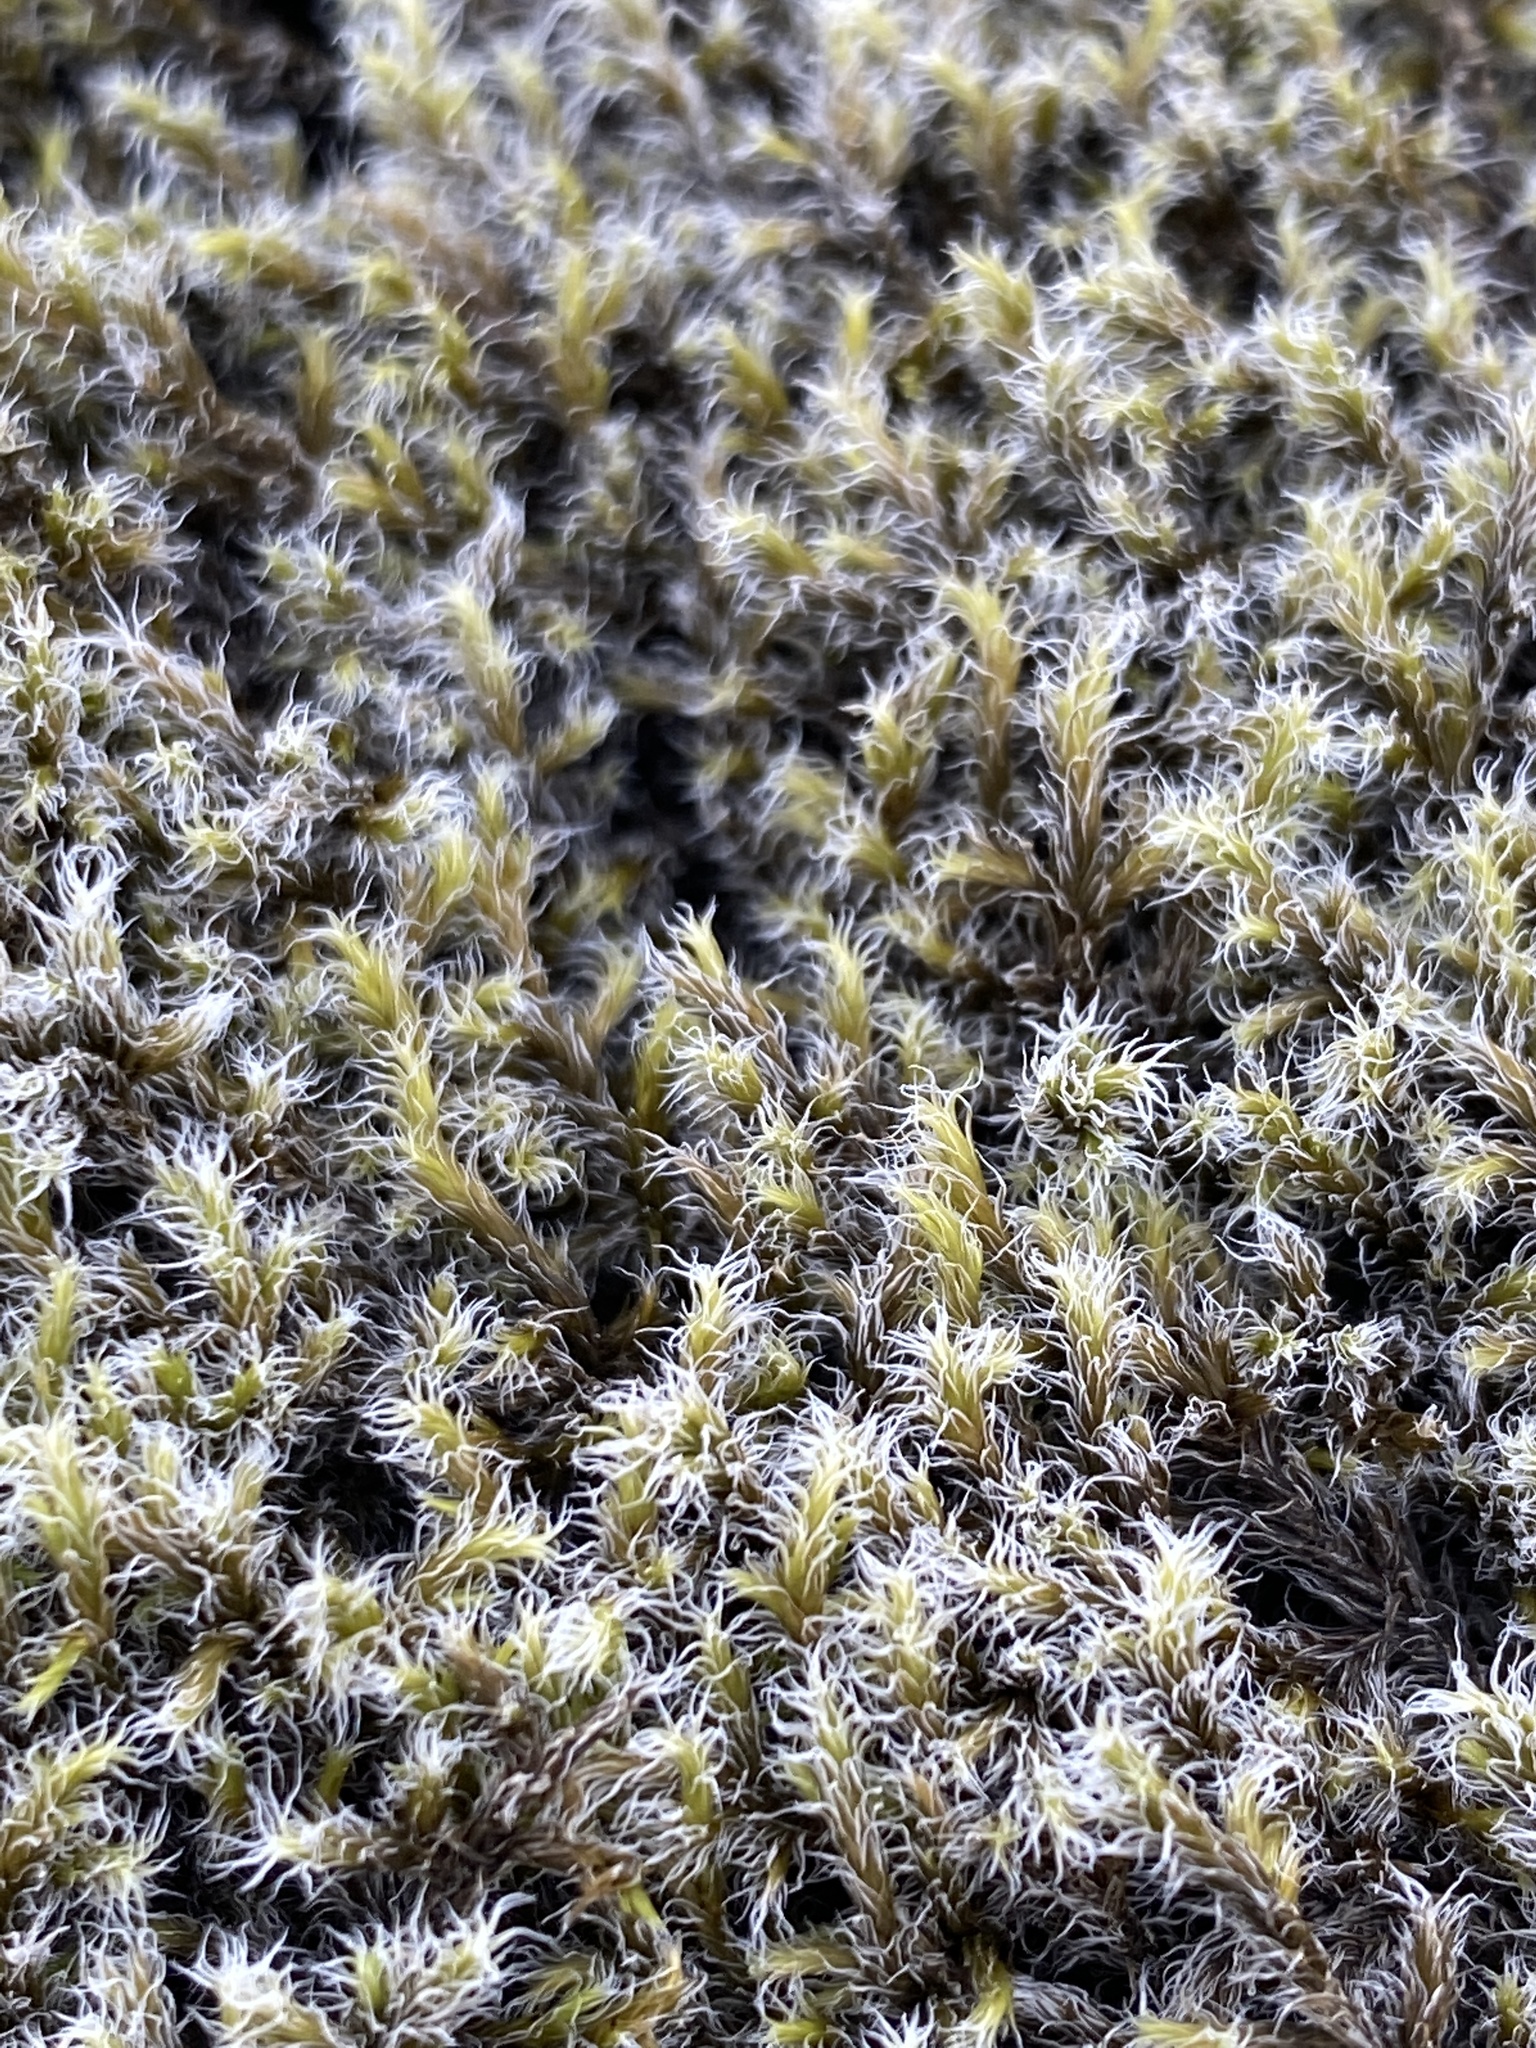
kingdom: Plantae
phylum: Bryophyta
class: Bryopsida
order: Grimmiales
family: Grimmiaceae
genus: Racomitrium
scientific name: Racomitrium lanuginosum
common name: Hoary rock moss
